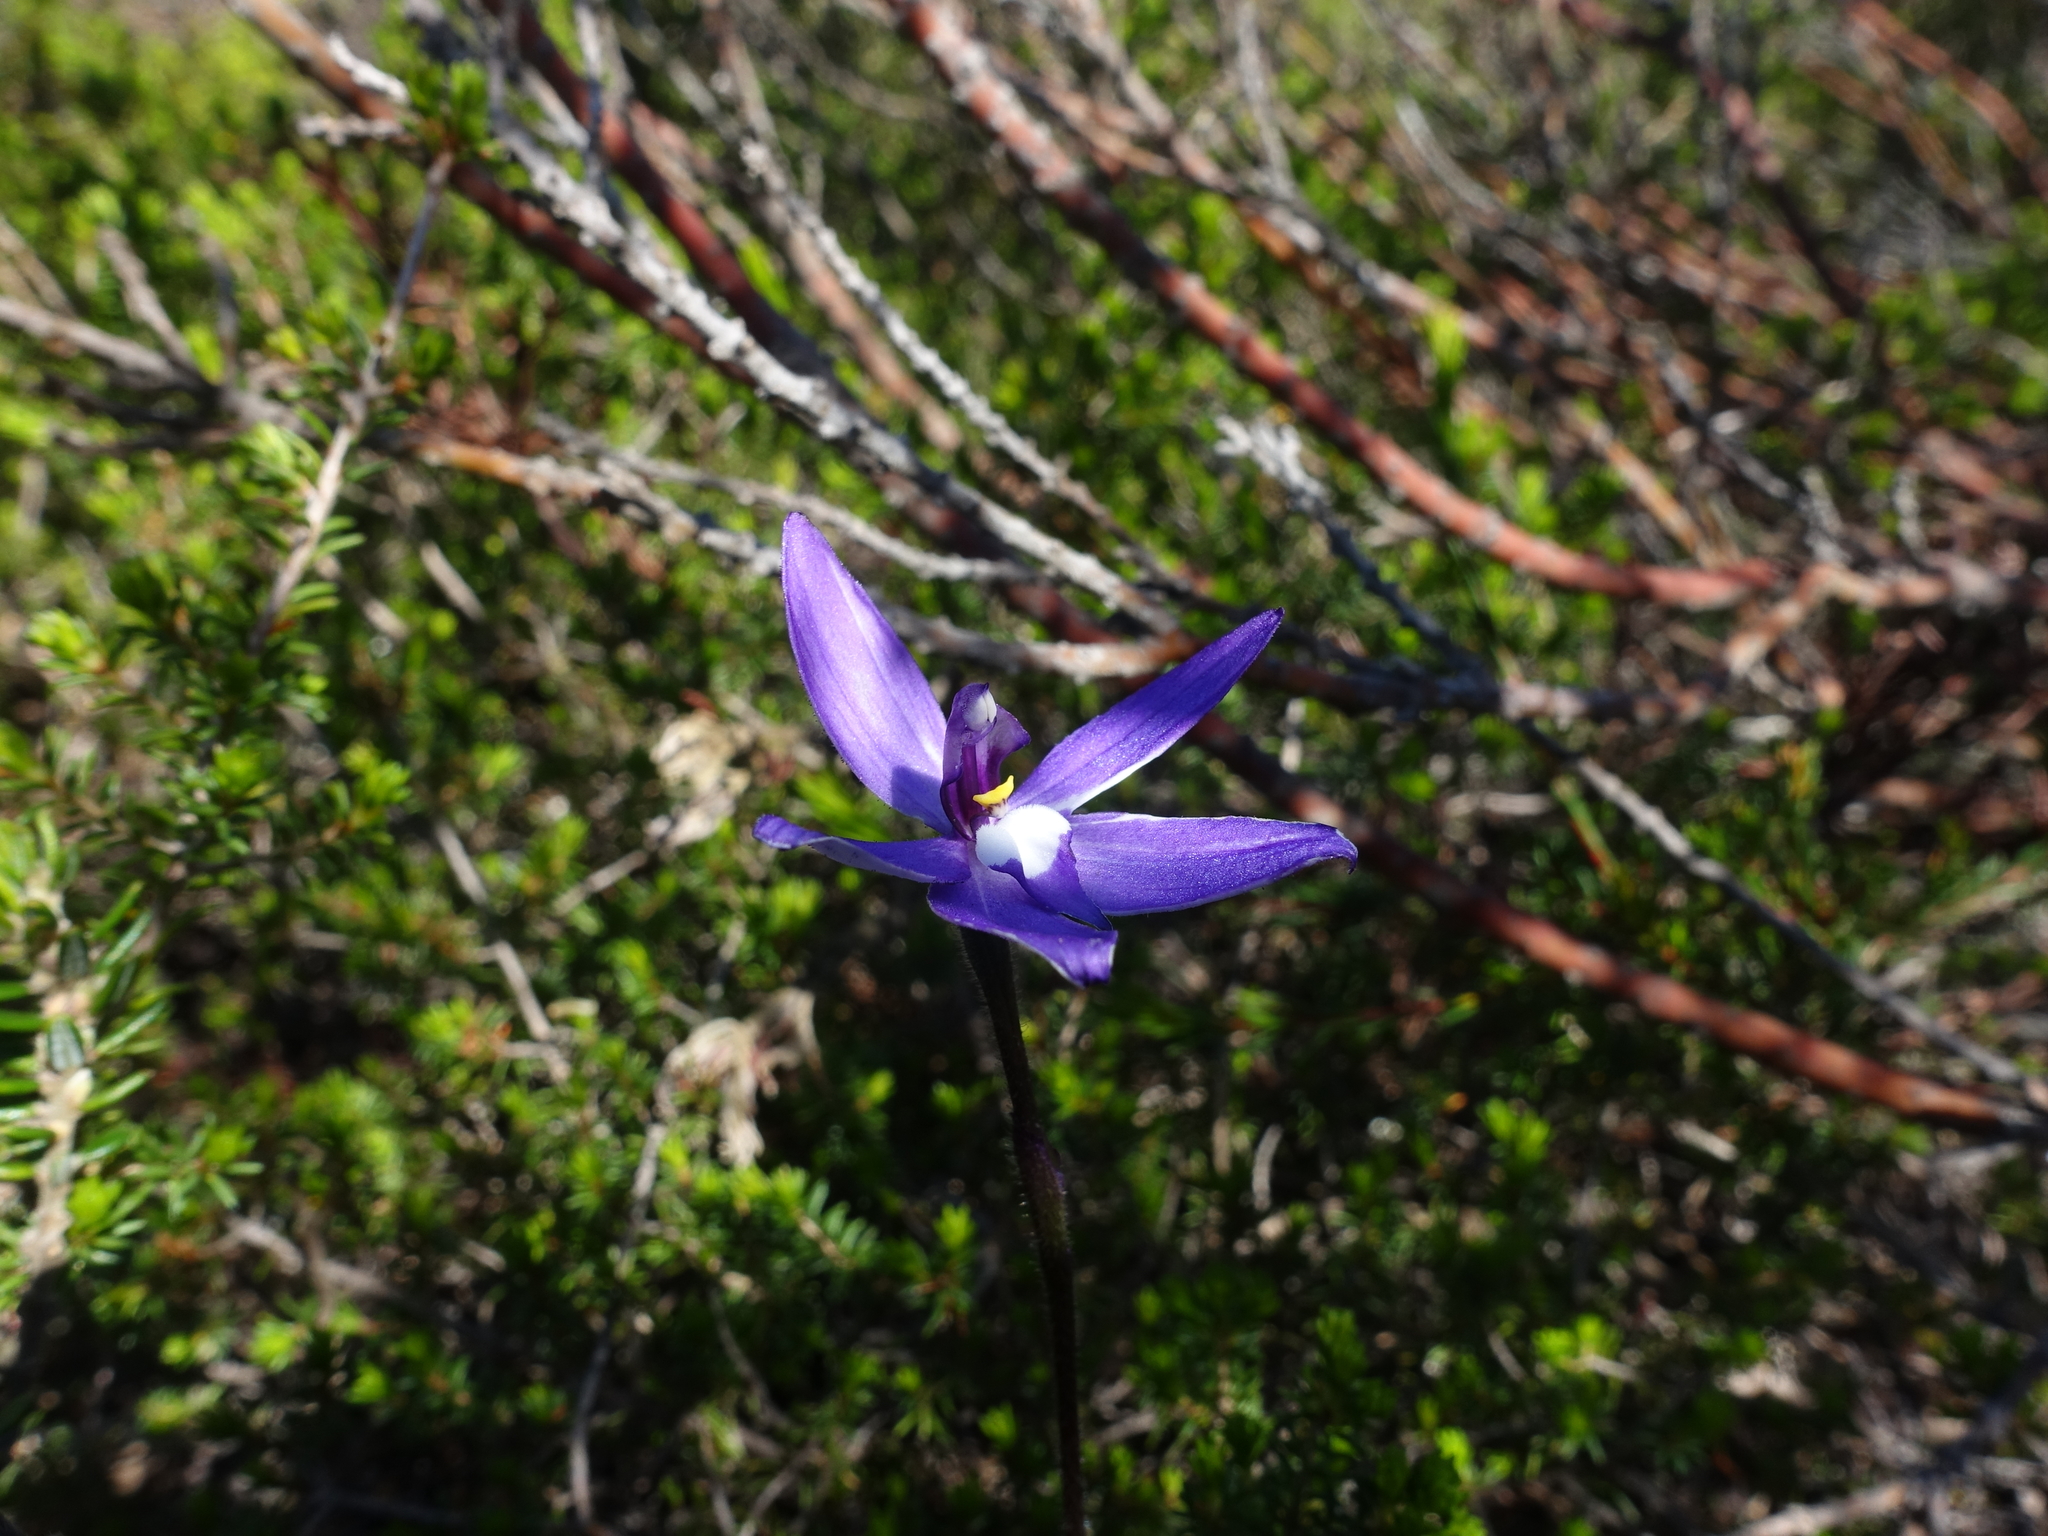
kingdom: Plantae
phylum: Tracheophyta
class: Liliopsida
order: Asparagales
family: Orchidaceae
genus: Caladenia
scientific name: Caladenia major
